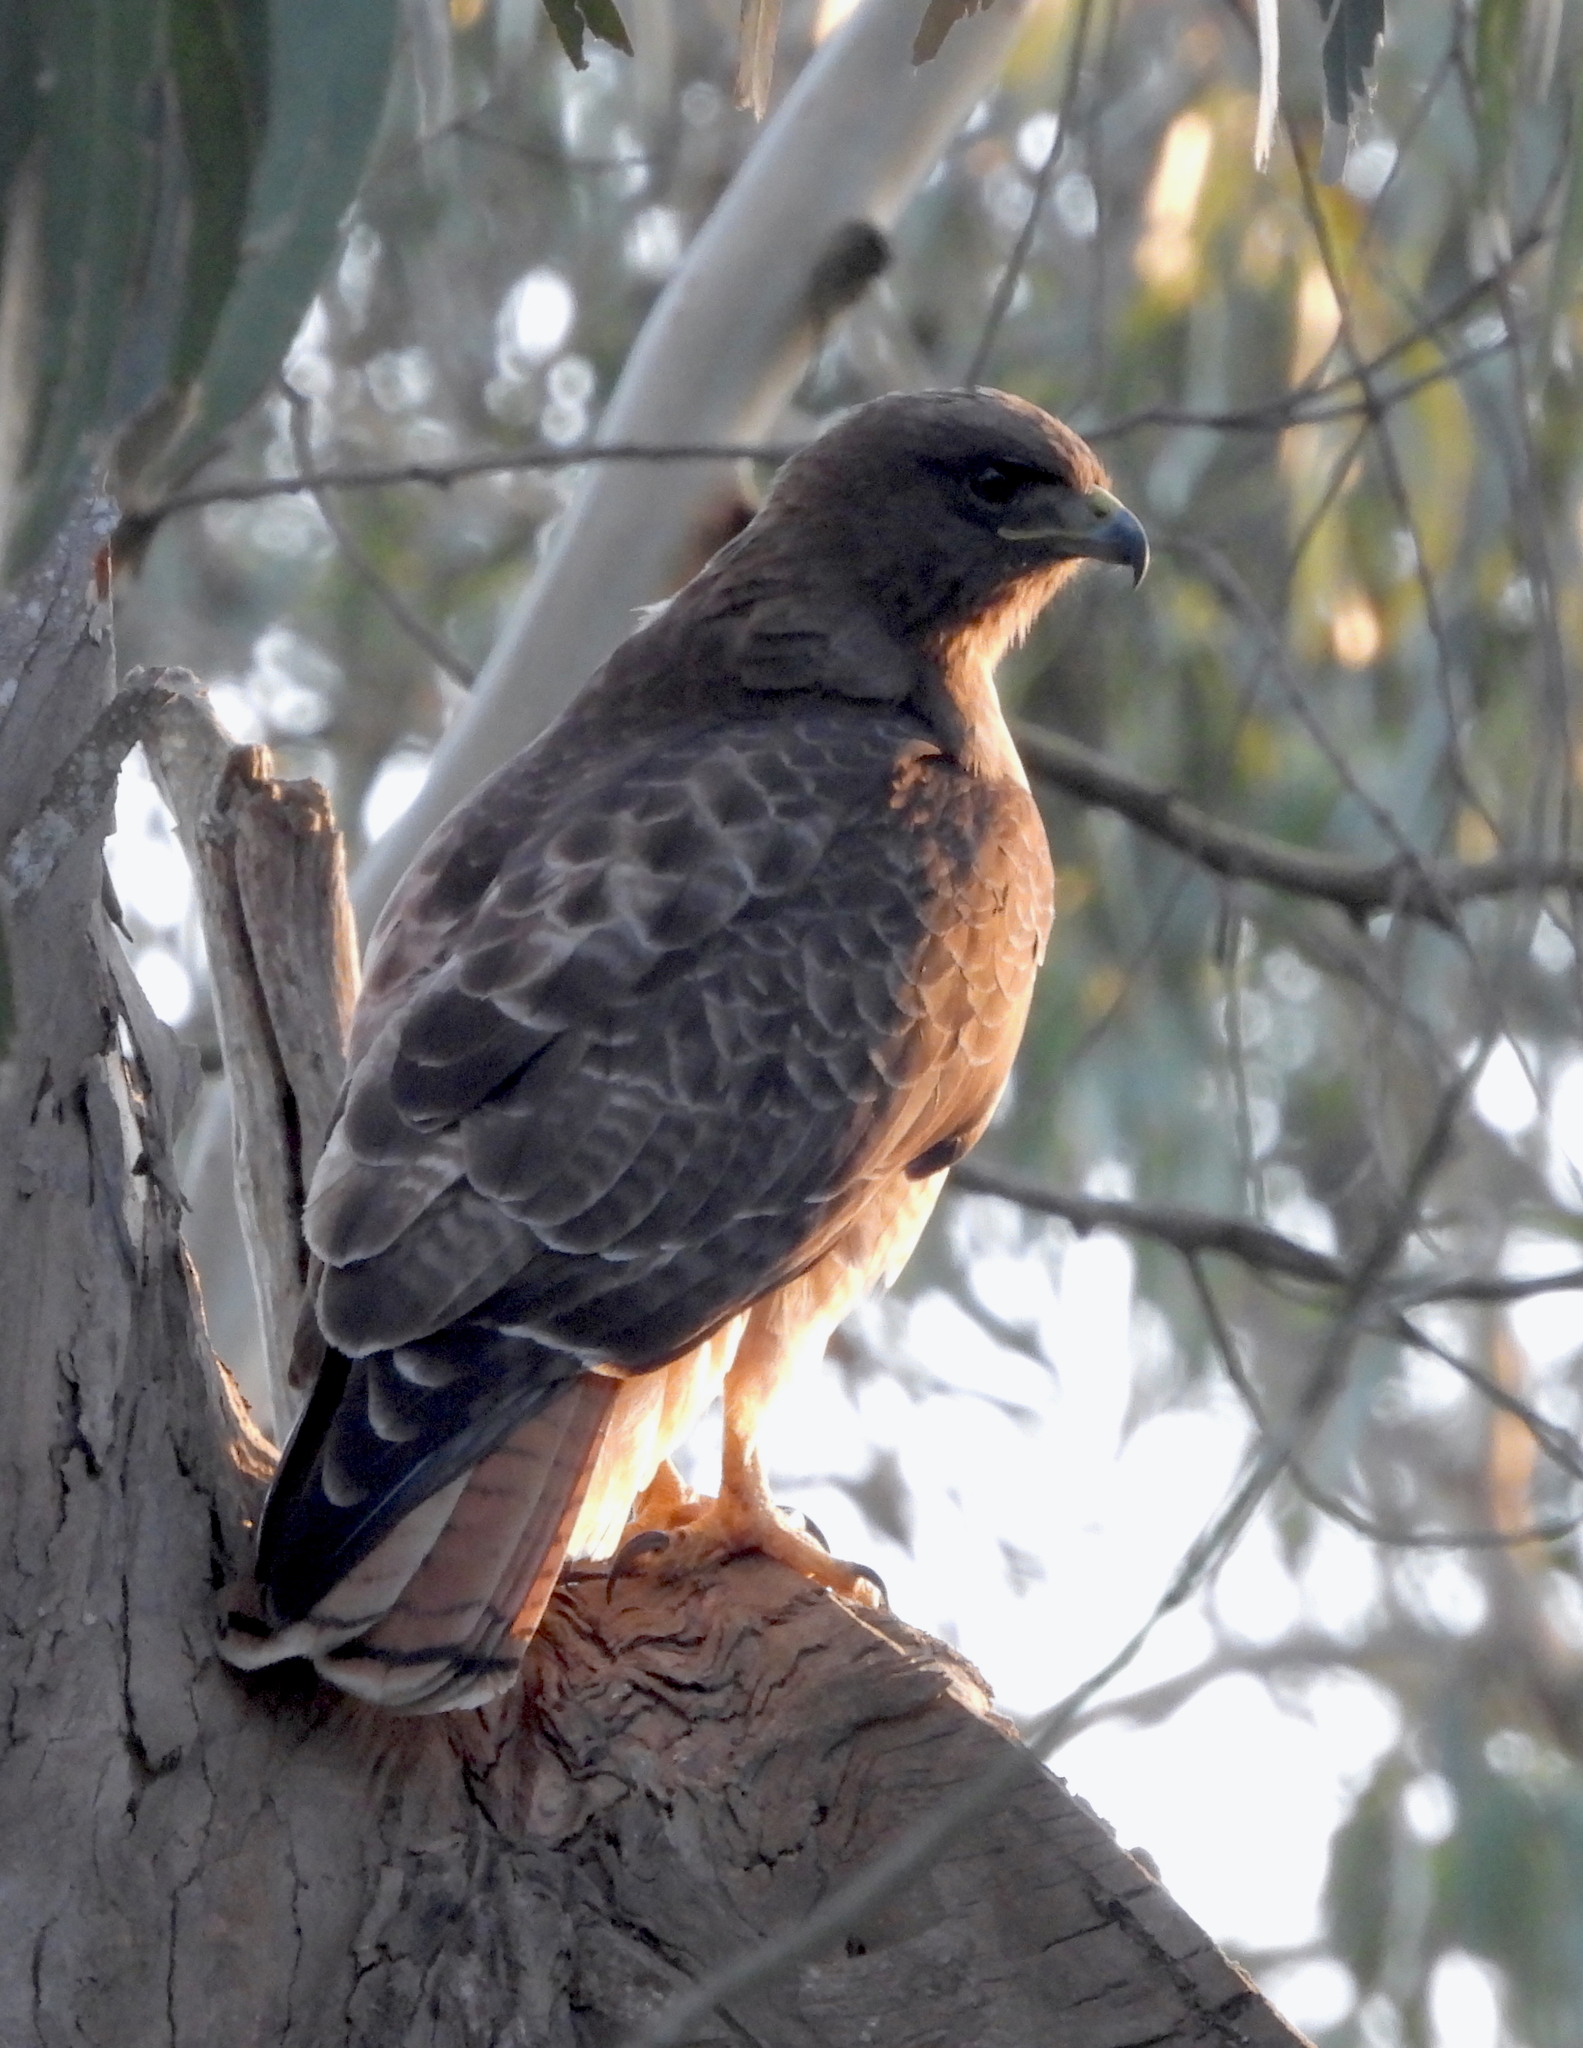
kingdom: Animalia
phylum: Chordata
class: Aves
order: Accipitriformes
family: Accipitridae
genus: Buteo
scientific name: Buteo jamaicensis
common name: Red-tailed hawk
